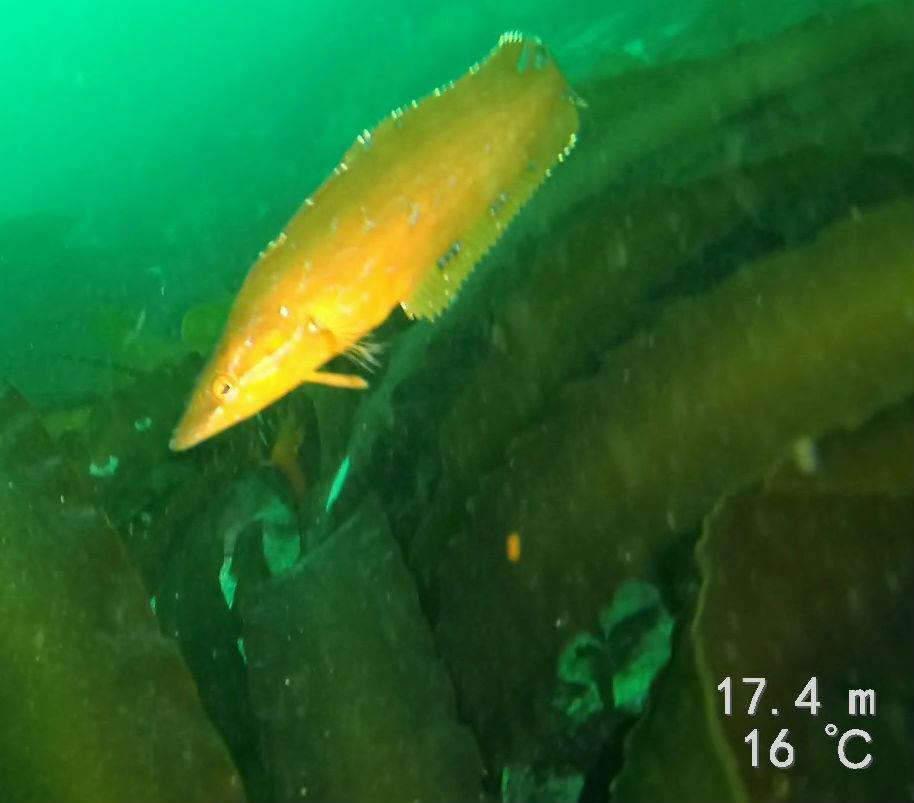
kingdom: Animalia
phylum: Chordata
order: Perciformes
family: Clinidae
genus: Heterostichus
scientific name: Heterostichus rostratus
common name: Giant kelpfish
